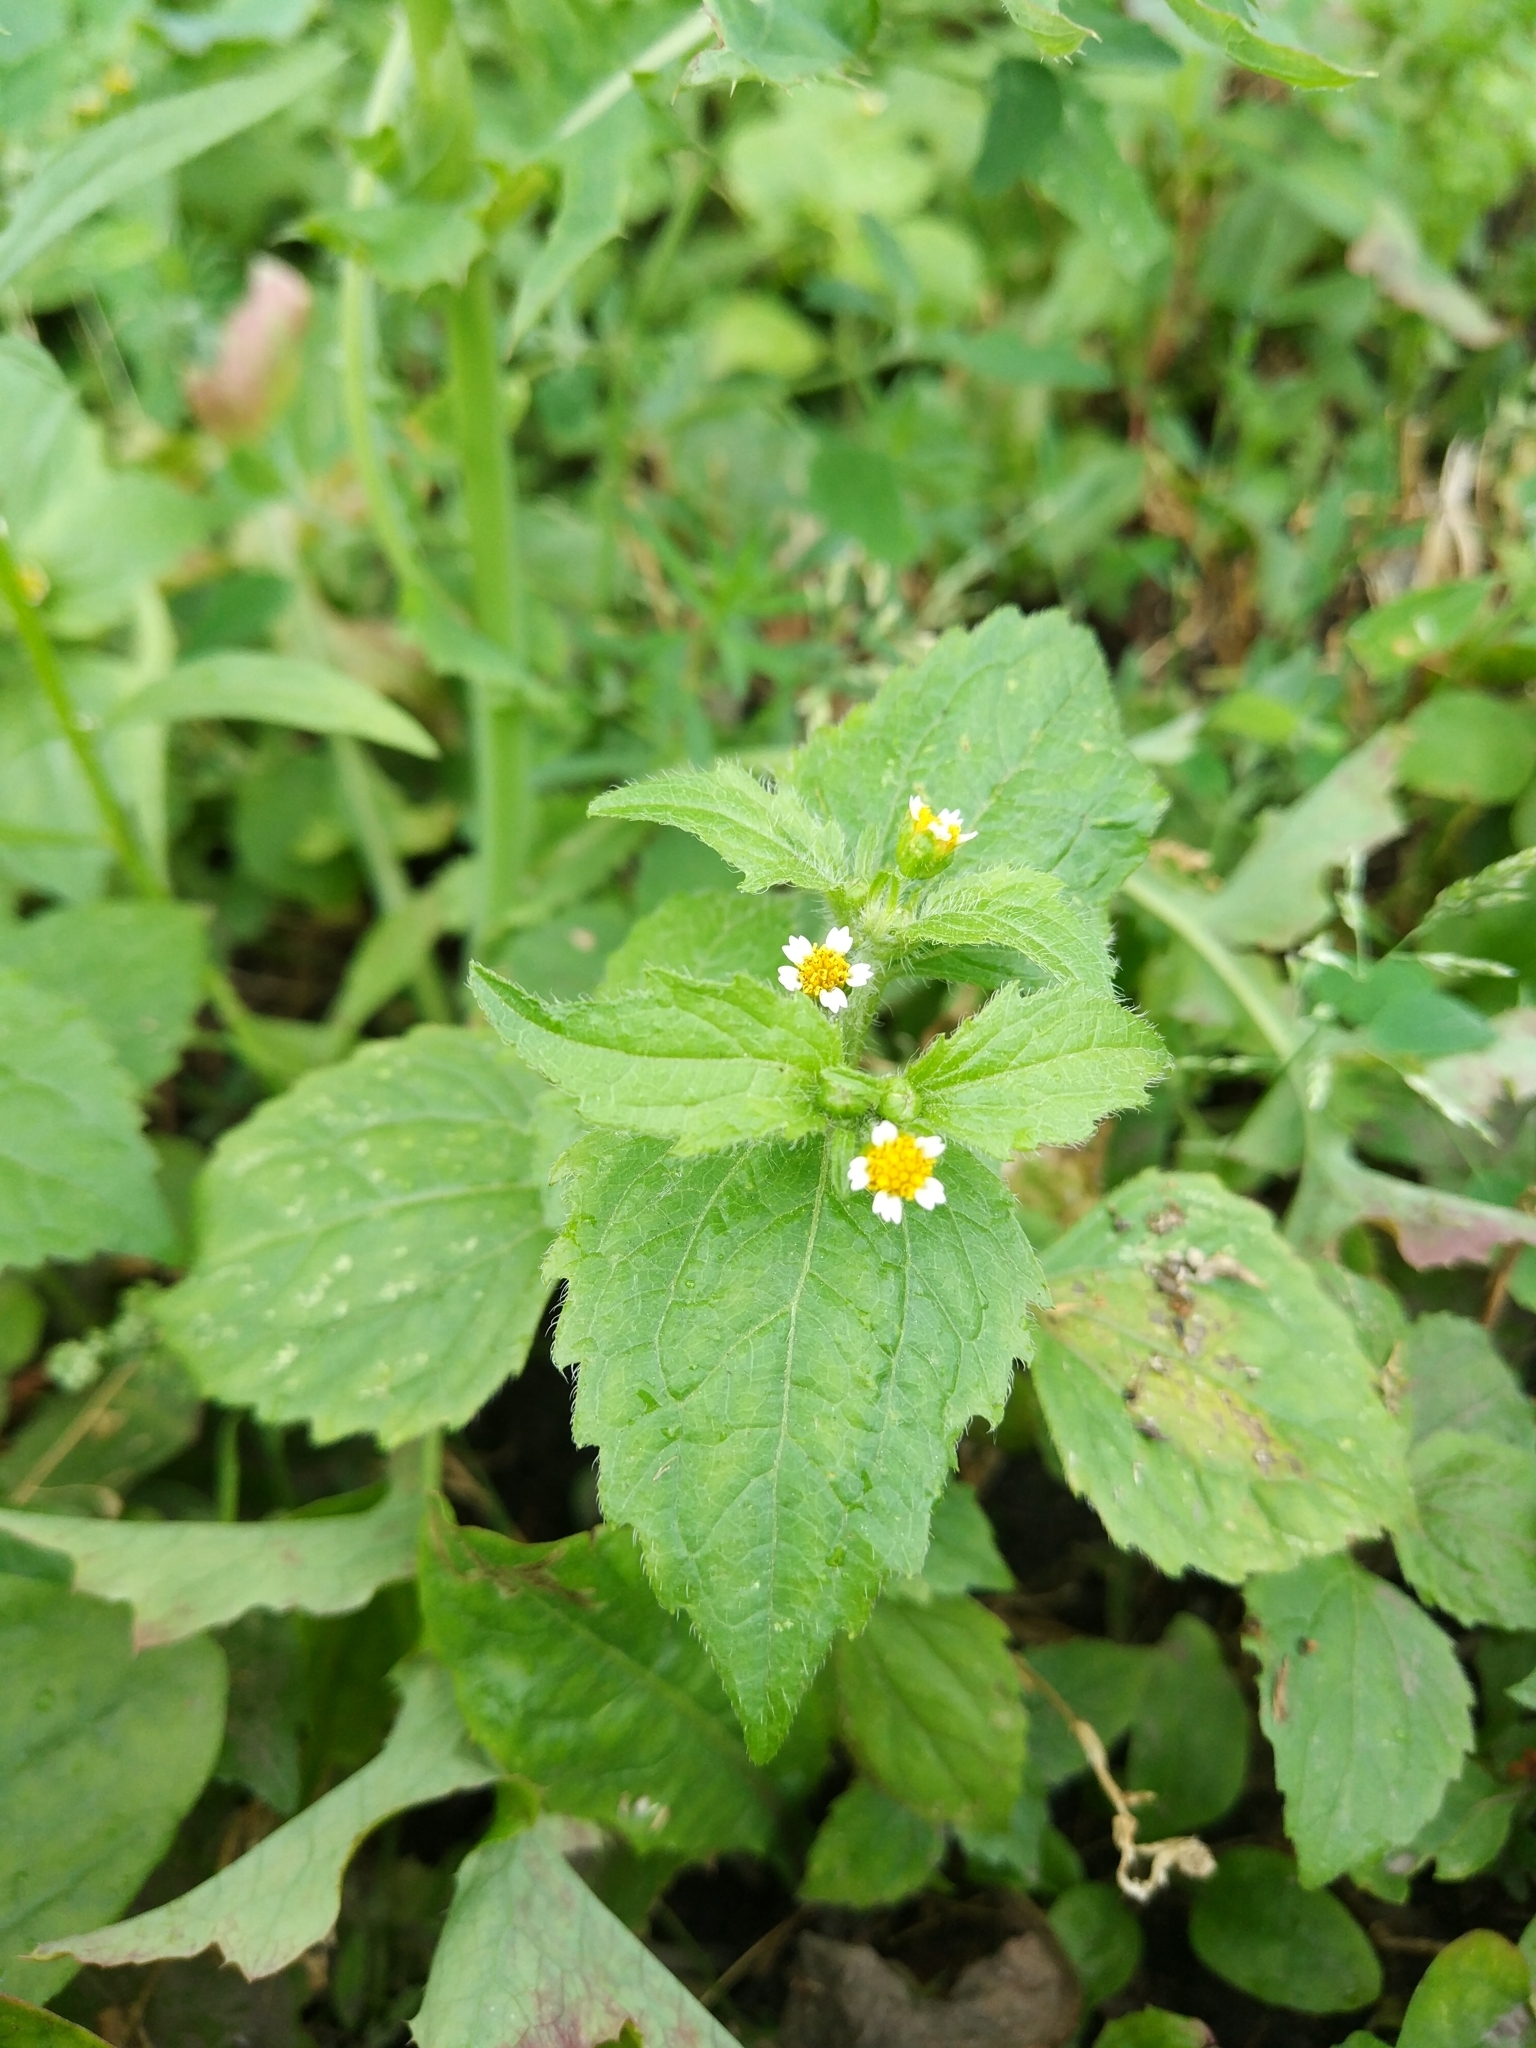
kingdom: Plantae
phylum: Tracheophyta
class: Magnoliopsida
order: Asterales
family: Asteraceae
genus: Galinsoga
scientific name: Galinsoga quadriradiata
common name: Shaggy soldier
